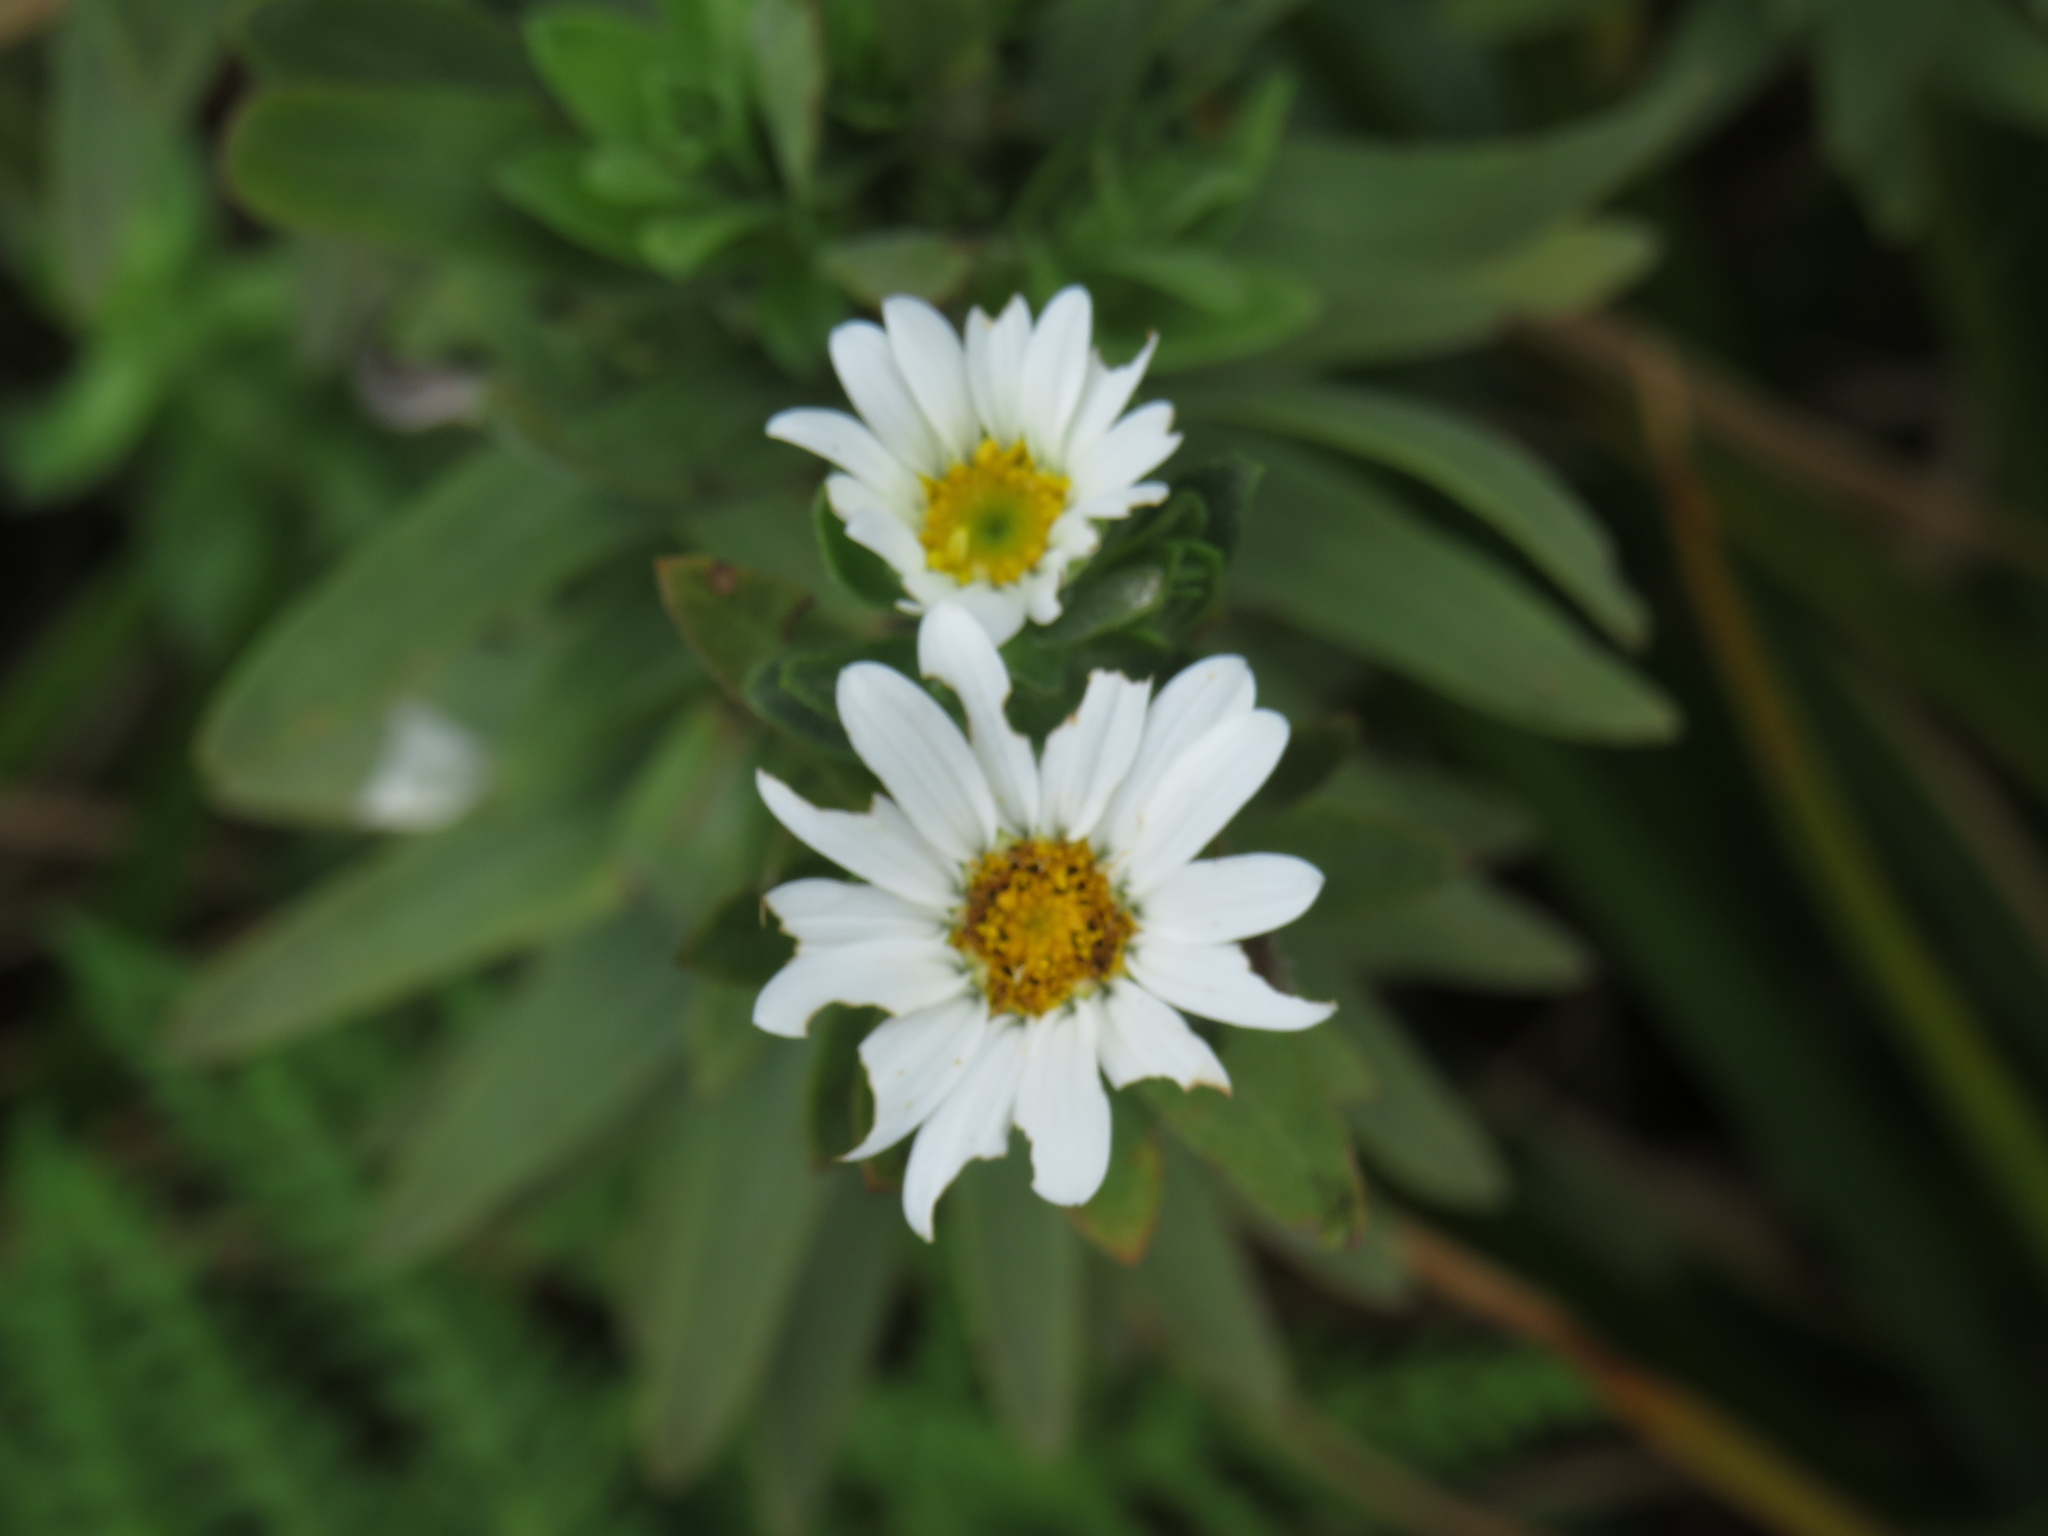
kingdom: Plantae
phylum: Tracheophyta
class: Magnoliopsida
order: Asterales
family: Asteraceae
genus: Osmitopsis
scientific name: Osmitopsis asteriscoides
